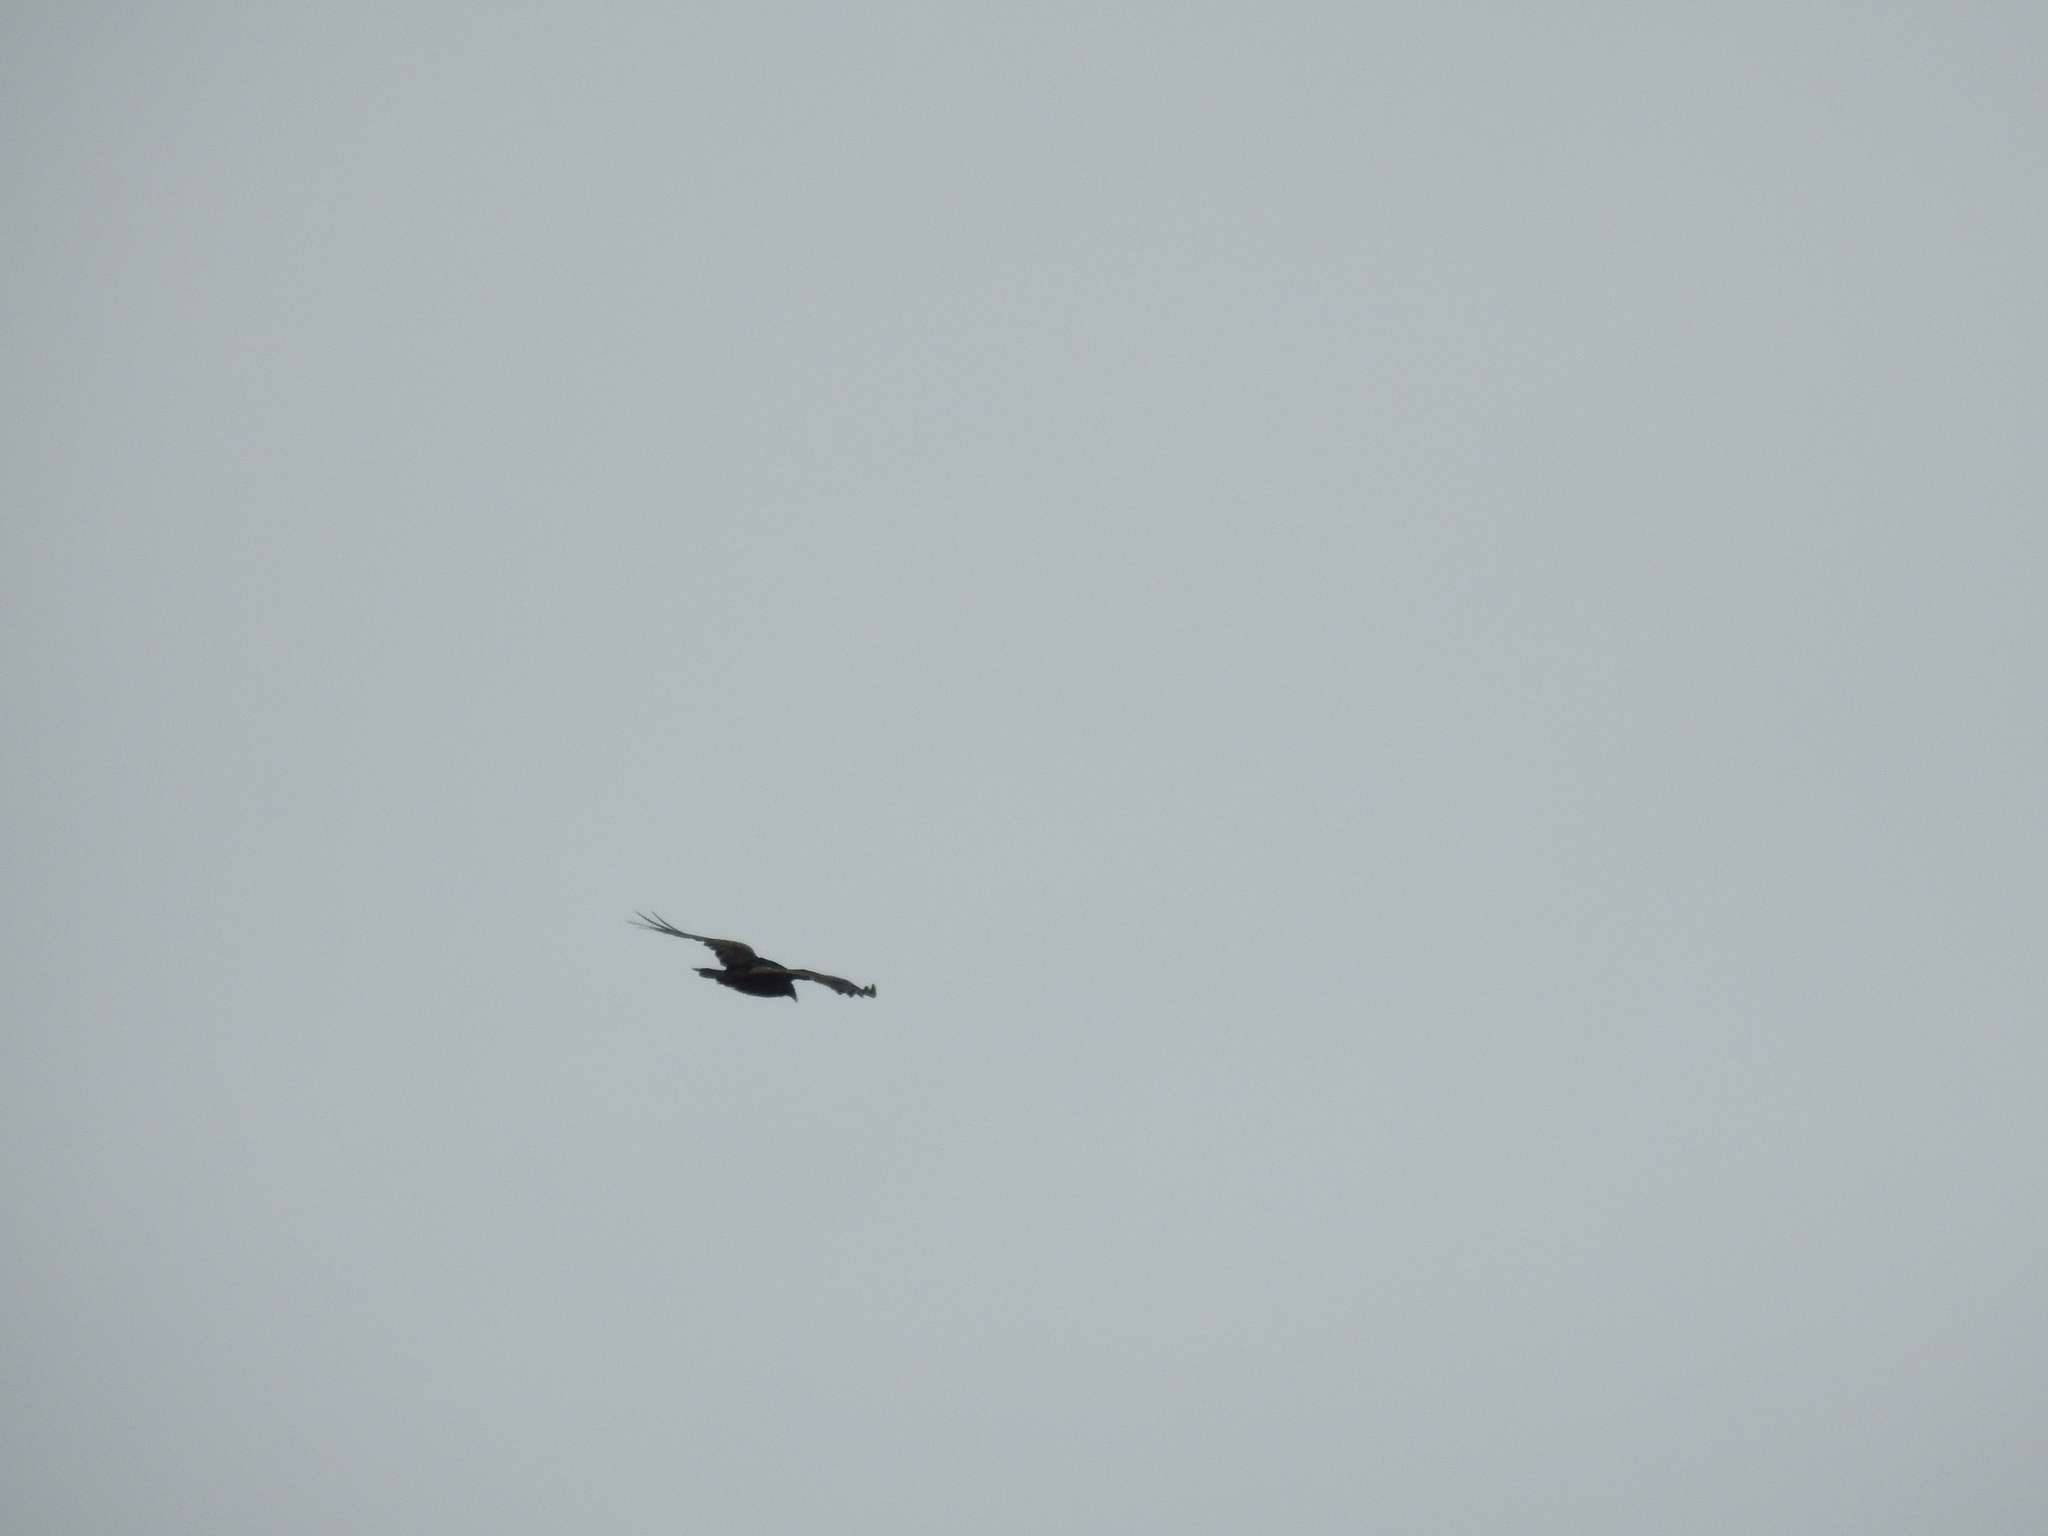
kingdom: Animalia
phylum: Chordata
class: Aves
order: Accipitriformes
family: Cathartidae
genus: Cathartes
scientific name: Cathartes aura
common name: Turkey vulture
